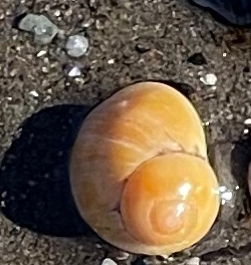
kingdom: Animalia
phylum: Mollusca
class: Gastropoda
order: Littorinimorpha
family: Littorinidae
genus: Littorina
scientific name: Littorina obtusata
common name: Flat periwinkle
